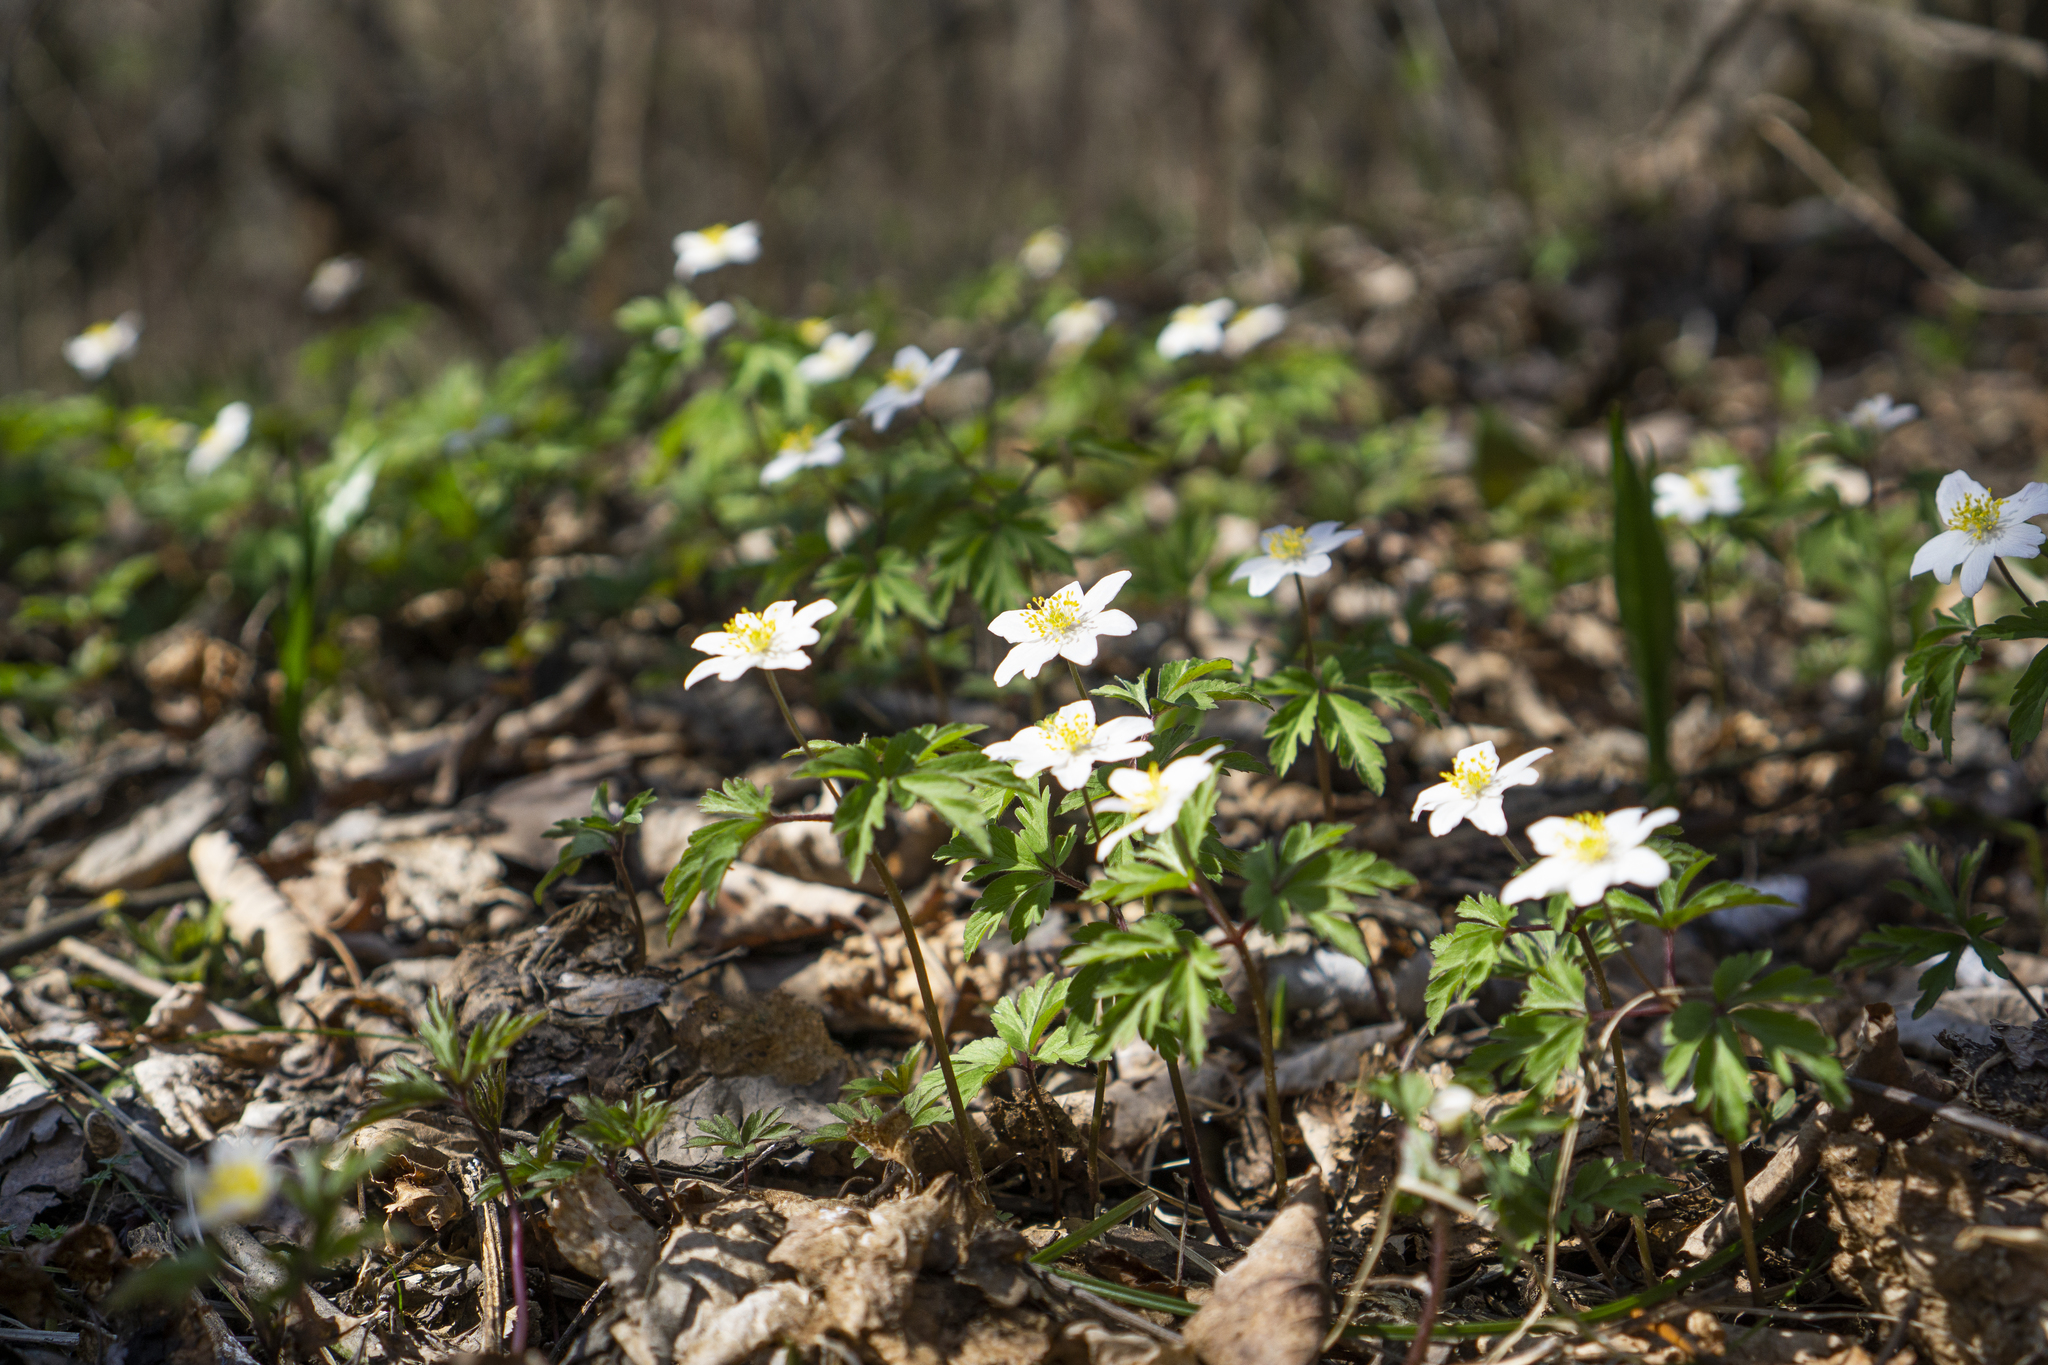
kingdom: Plantae
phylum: Tracheophyta
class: Magnoliopsida
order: Ranunculales
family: Ranunculaceae
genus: Anemone
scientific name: Anemone nemorosa
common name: Wood anemone
